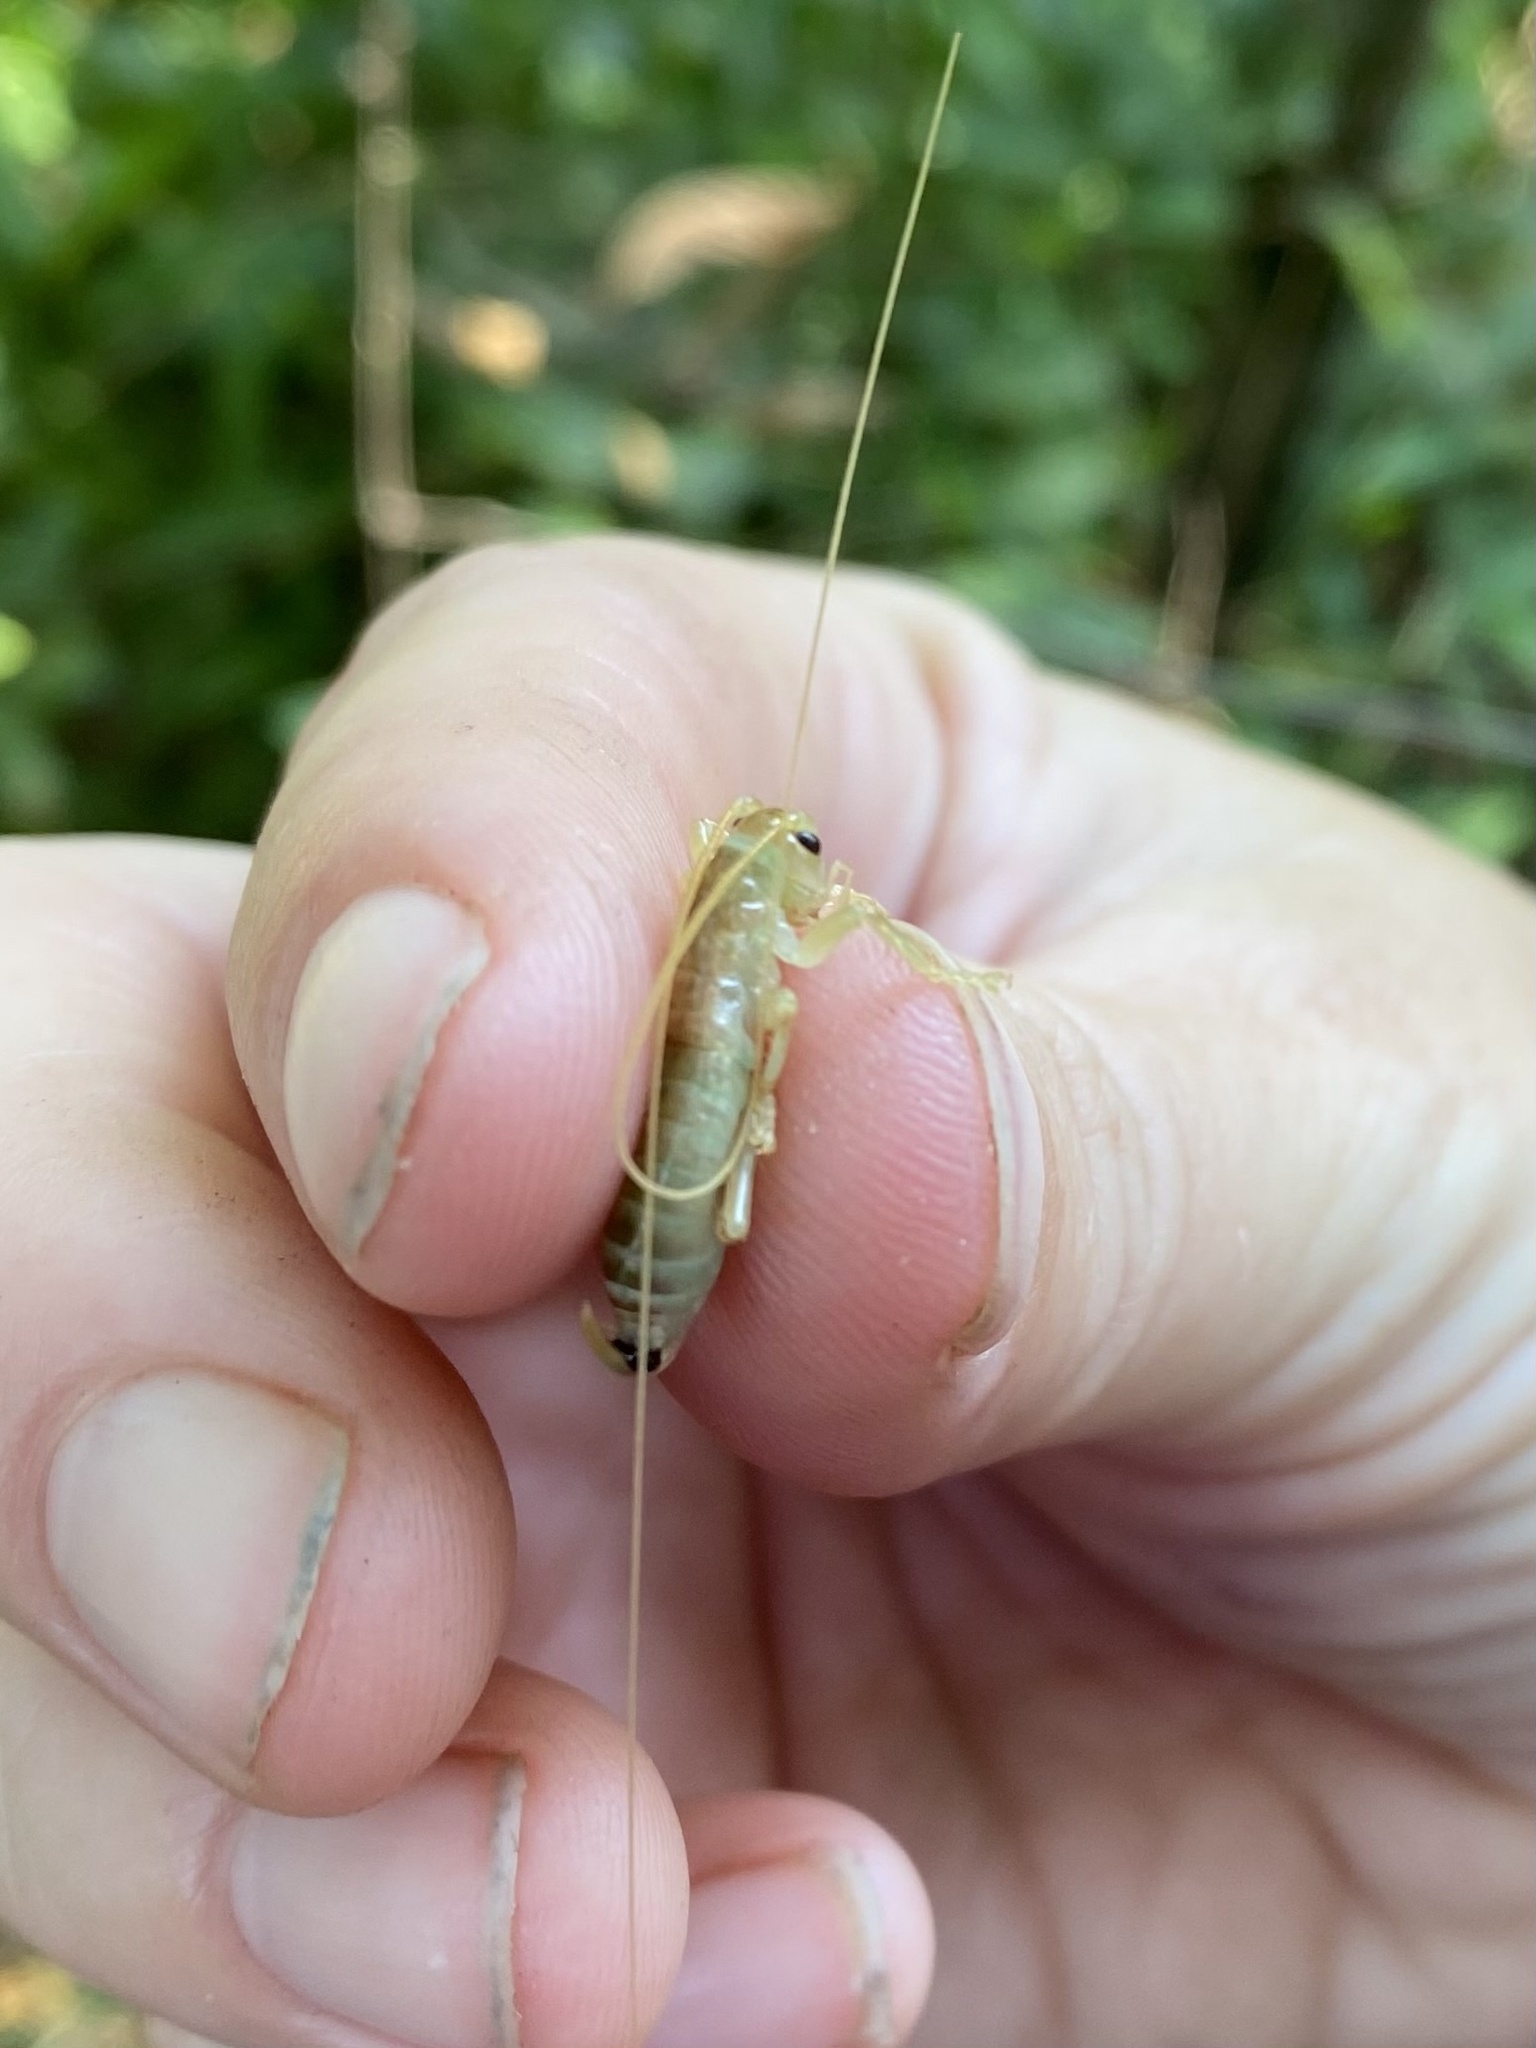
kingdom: Animalia
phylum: Arthropoda
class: Insecta
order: Orthoptera
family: Gryllacrididae
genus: Camptonotus
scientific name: Camptonotus carolinensis
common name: Carolina leaf-roller
